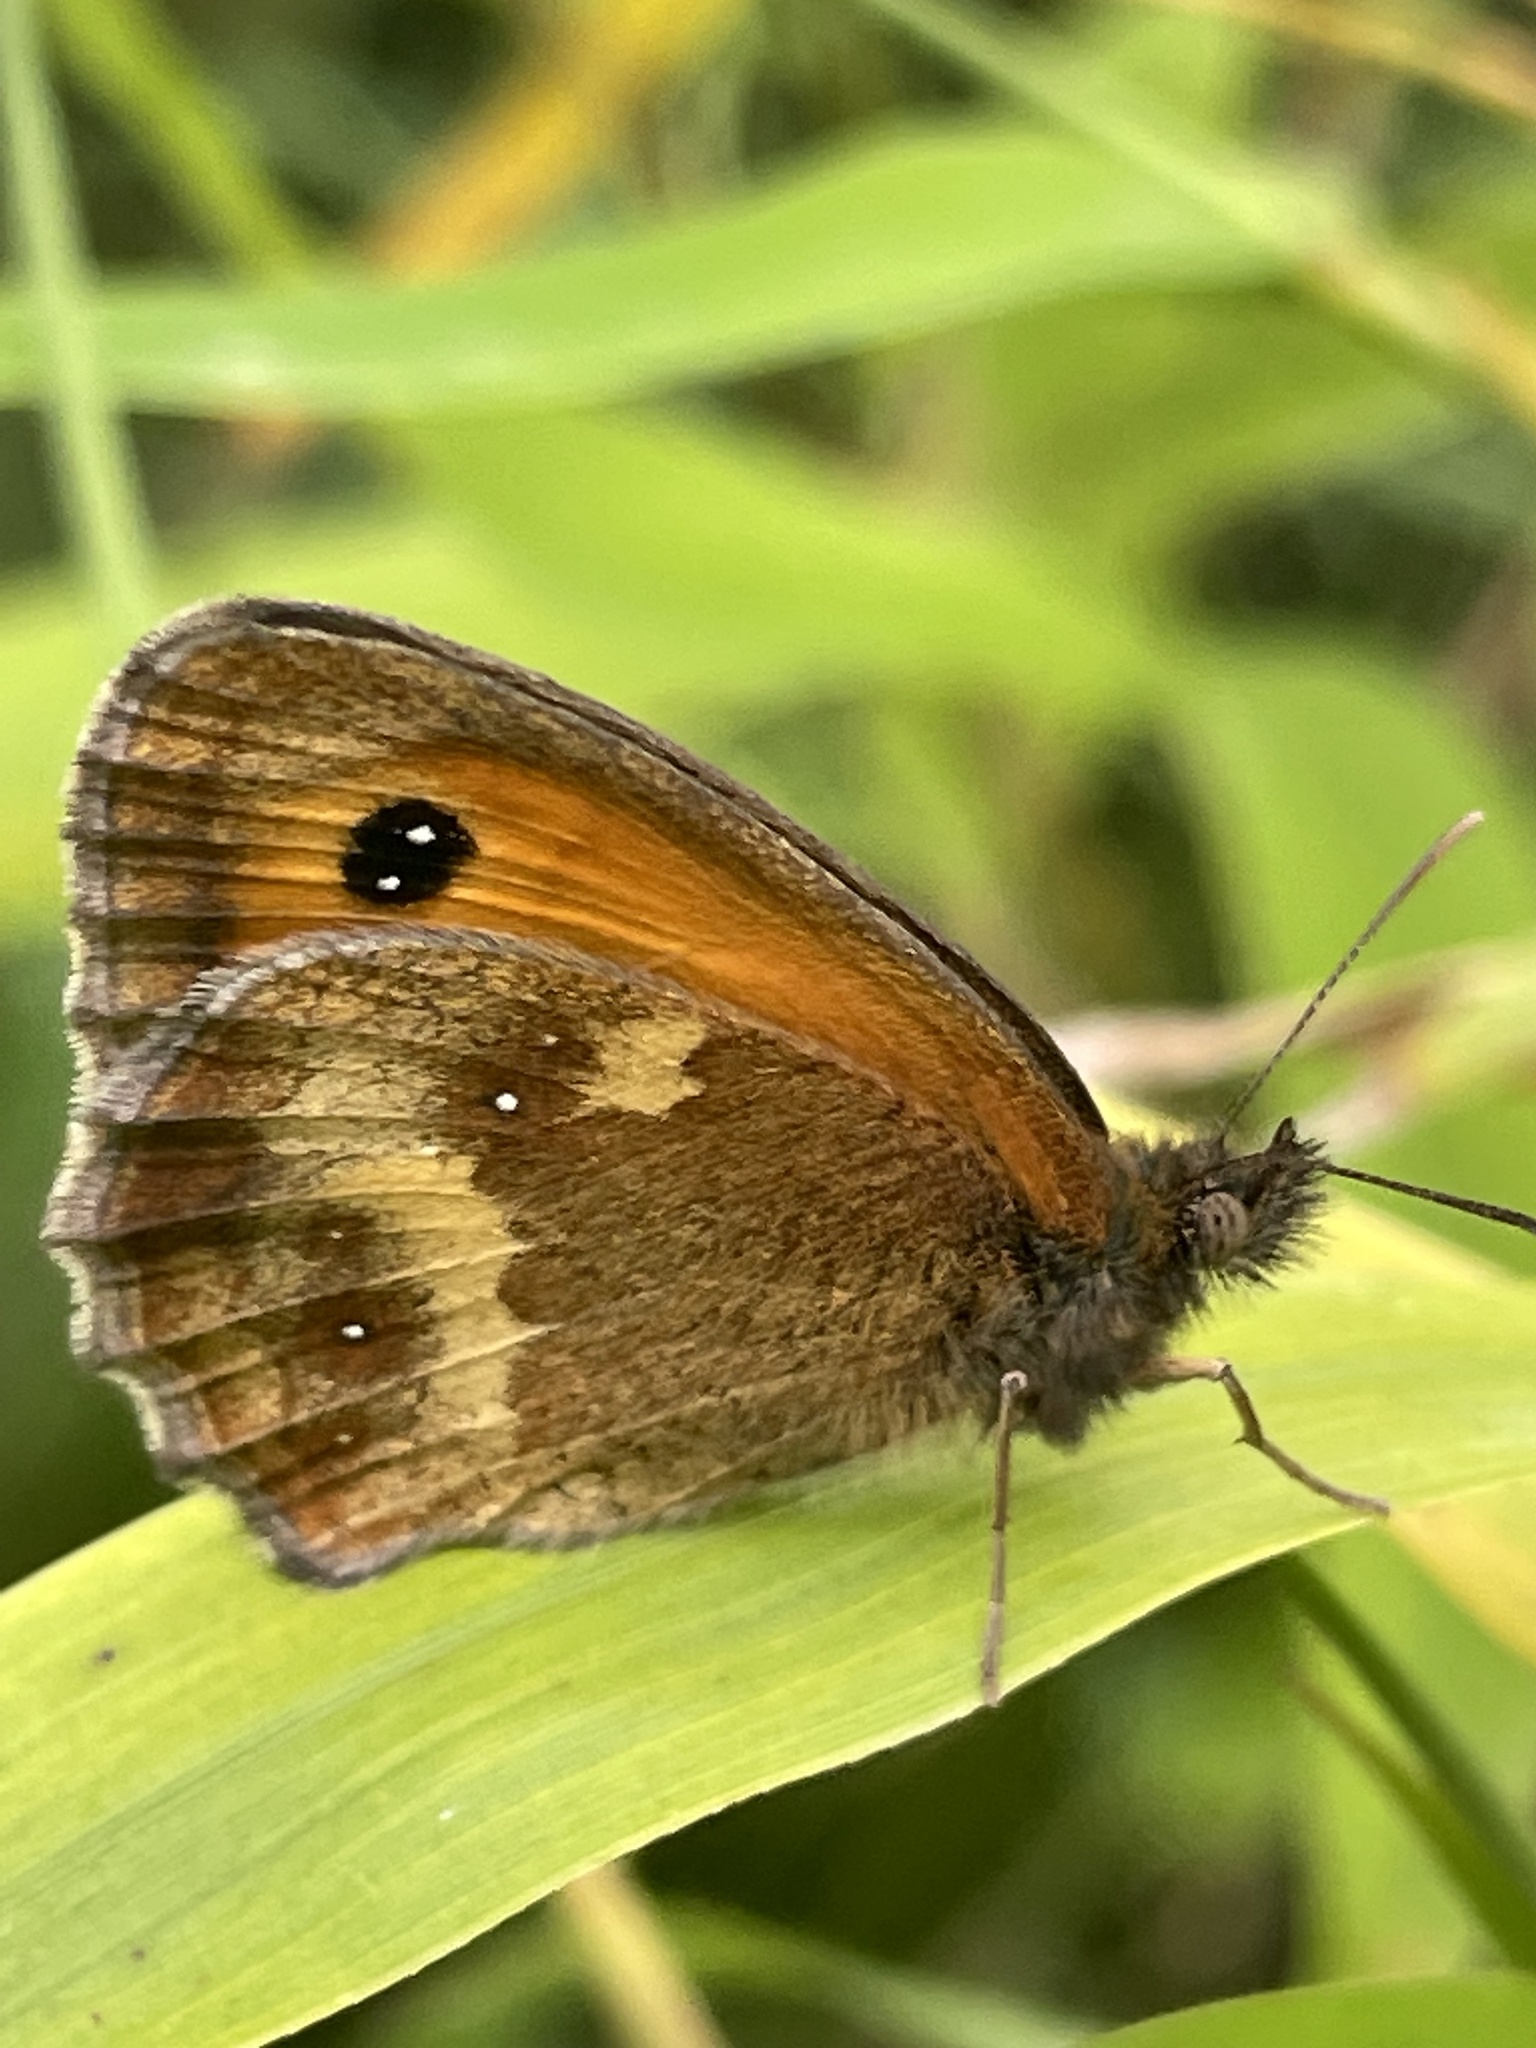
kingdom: Animalia
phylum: Arthropoda
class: Insecta
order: Lepidoptera
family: Nymphalidae
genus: Pyronia
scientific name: Pyronia tithonus
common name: Gatekeeper
